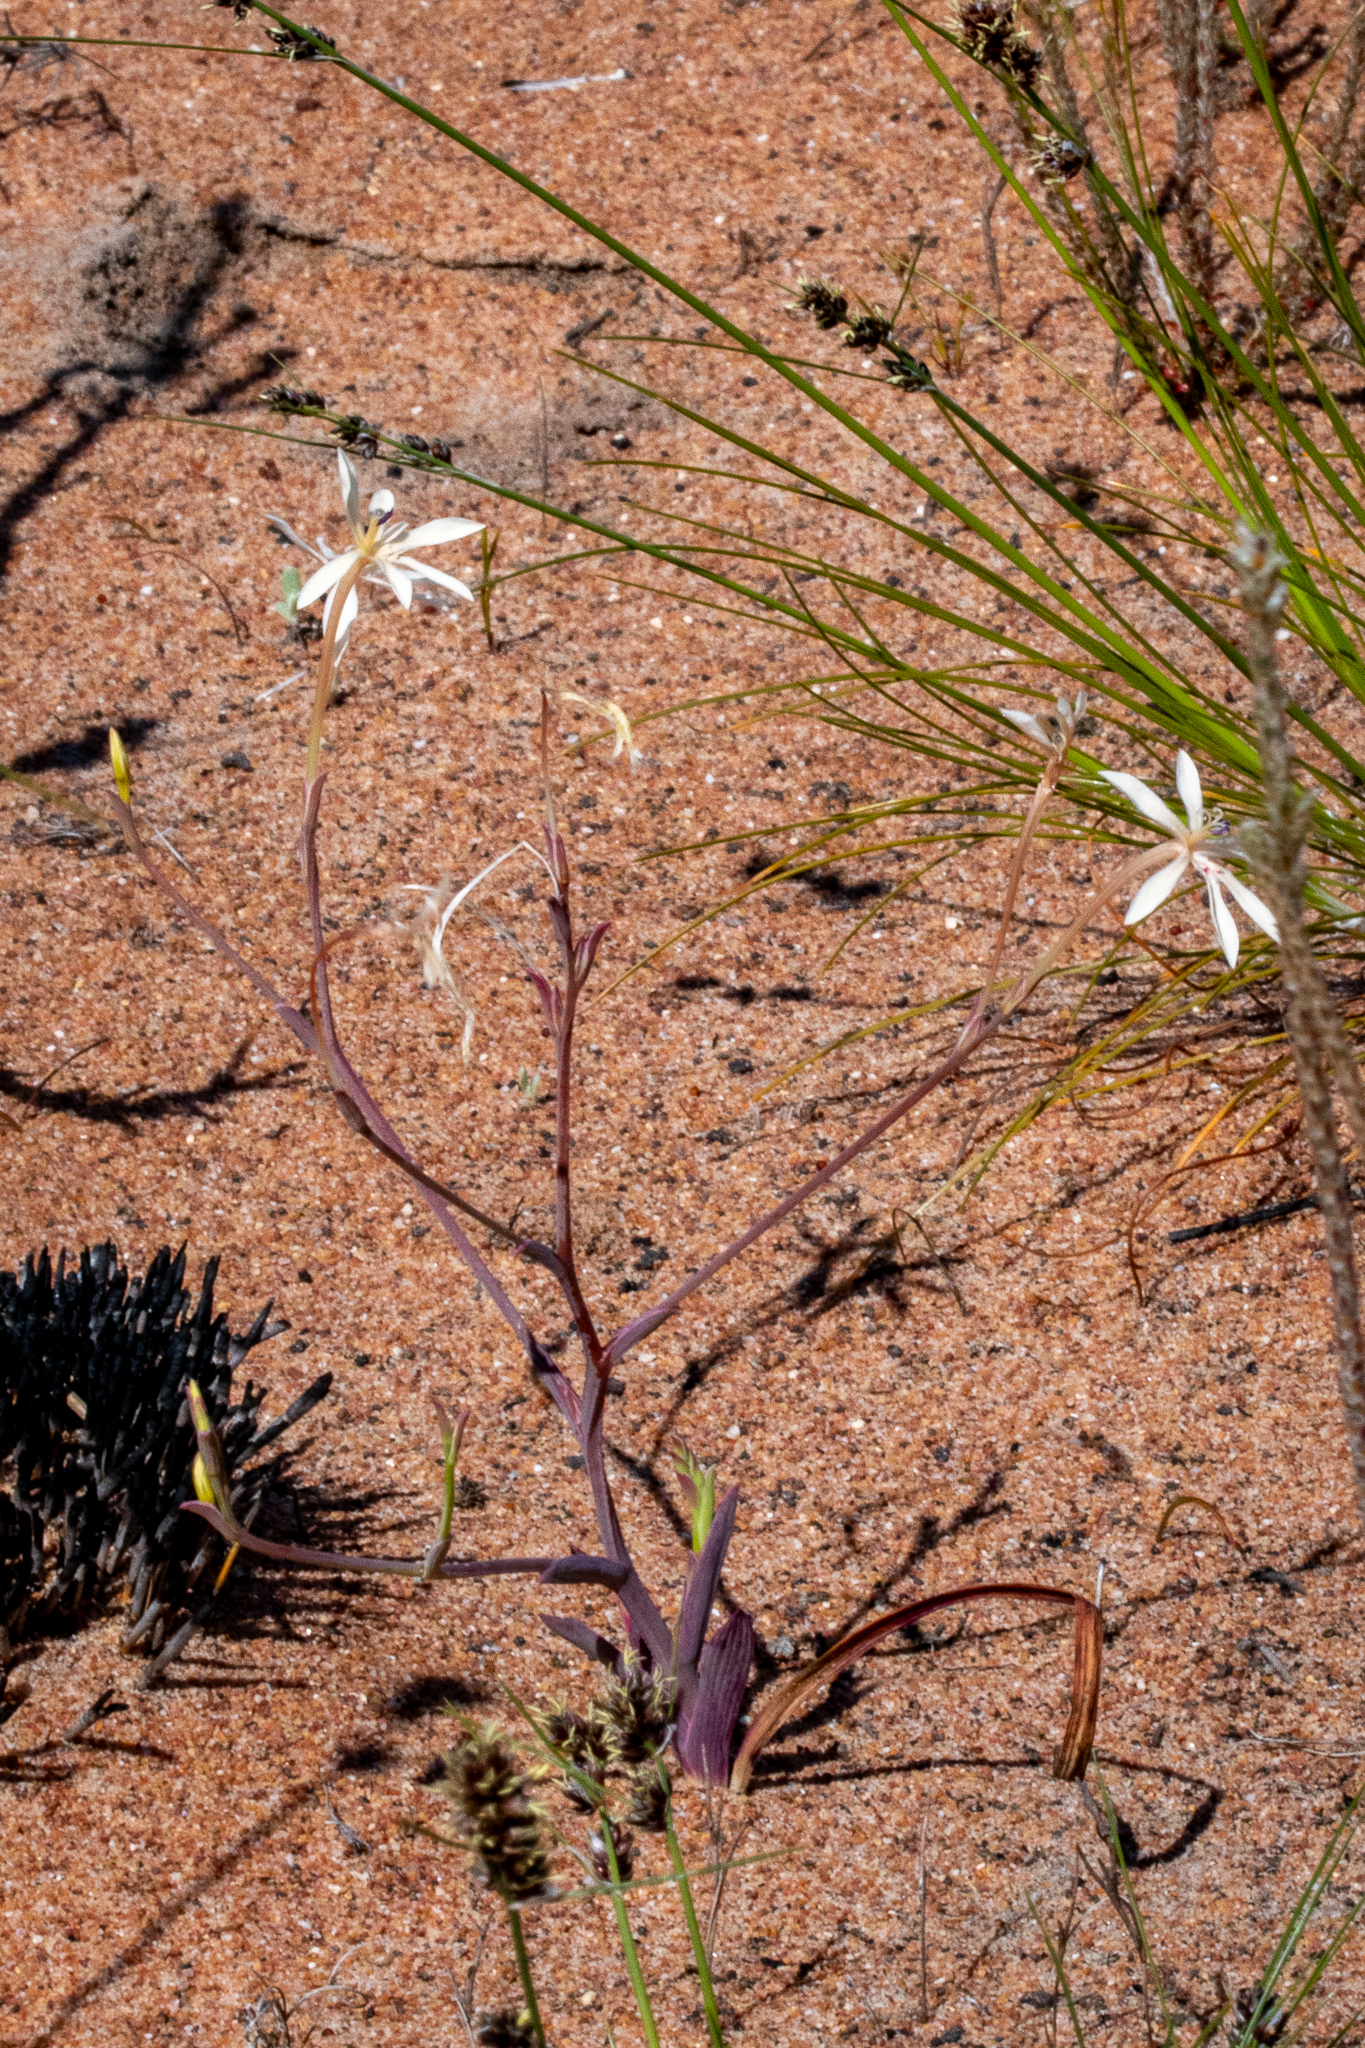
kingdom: Plantae
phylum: Tracheophyta
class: Liliopsida
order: Asparagales
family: Iridaceae
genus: Lapeirousia
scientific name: Lapeirousia anceps
